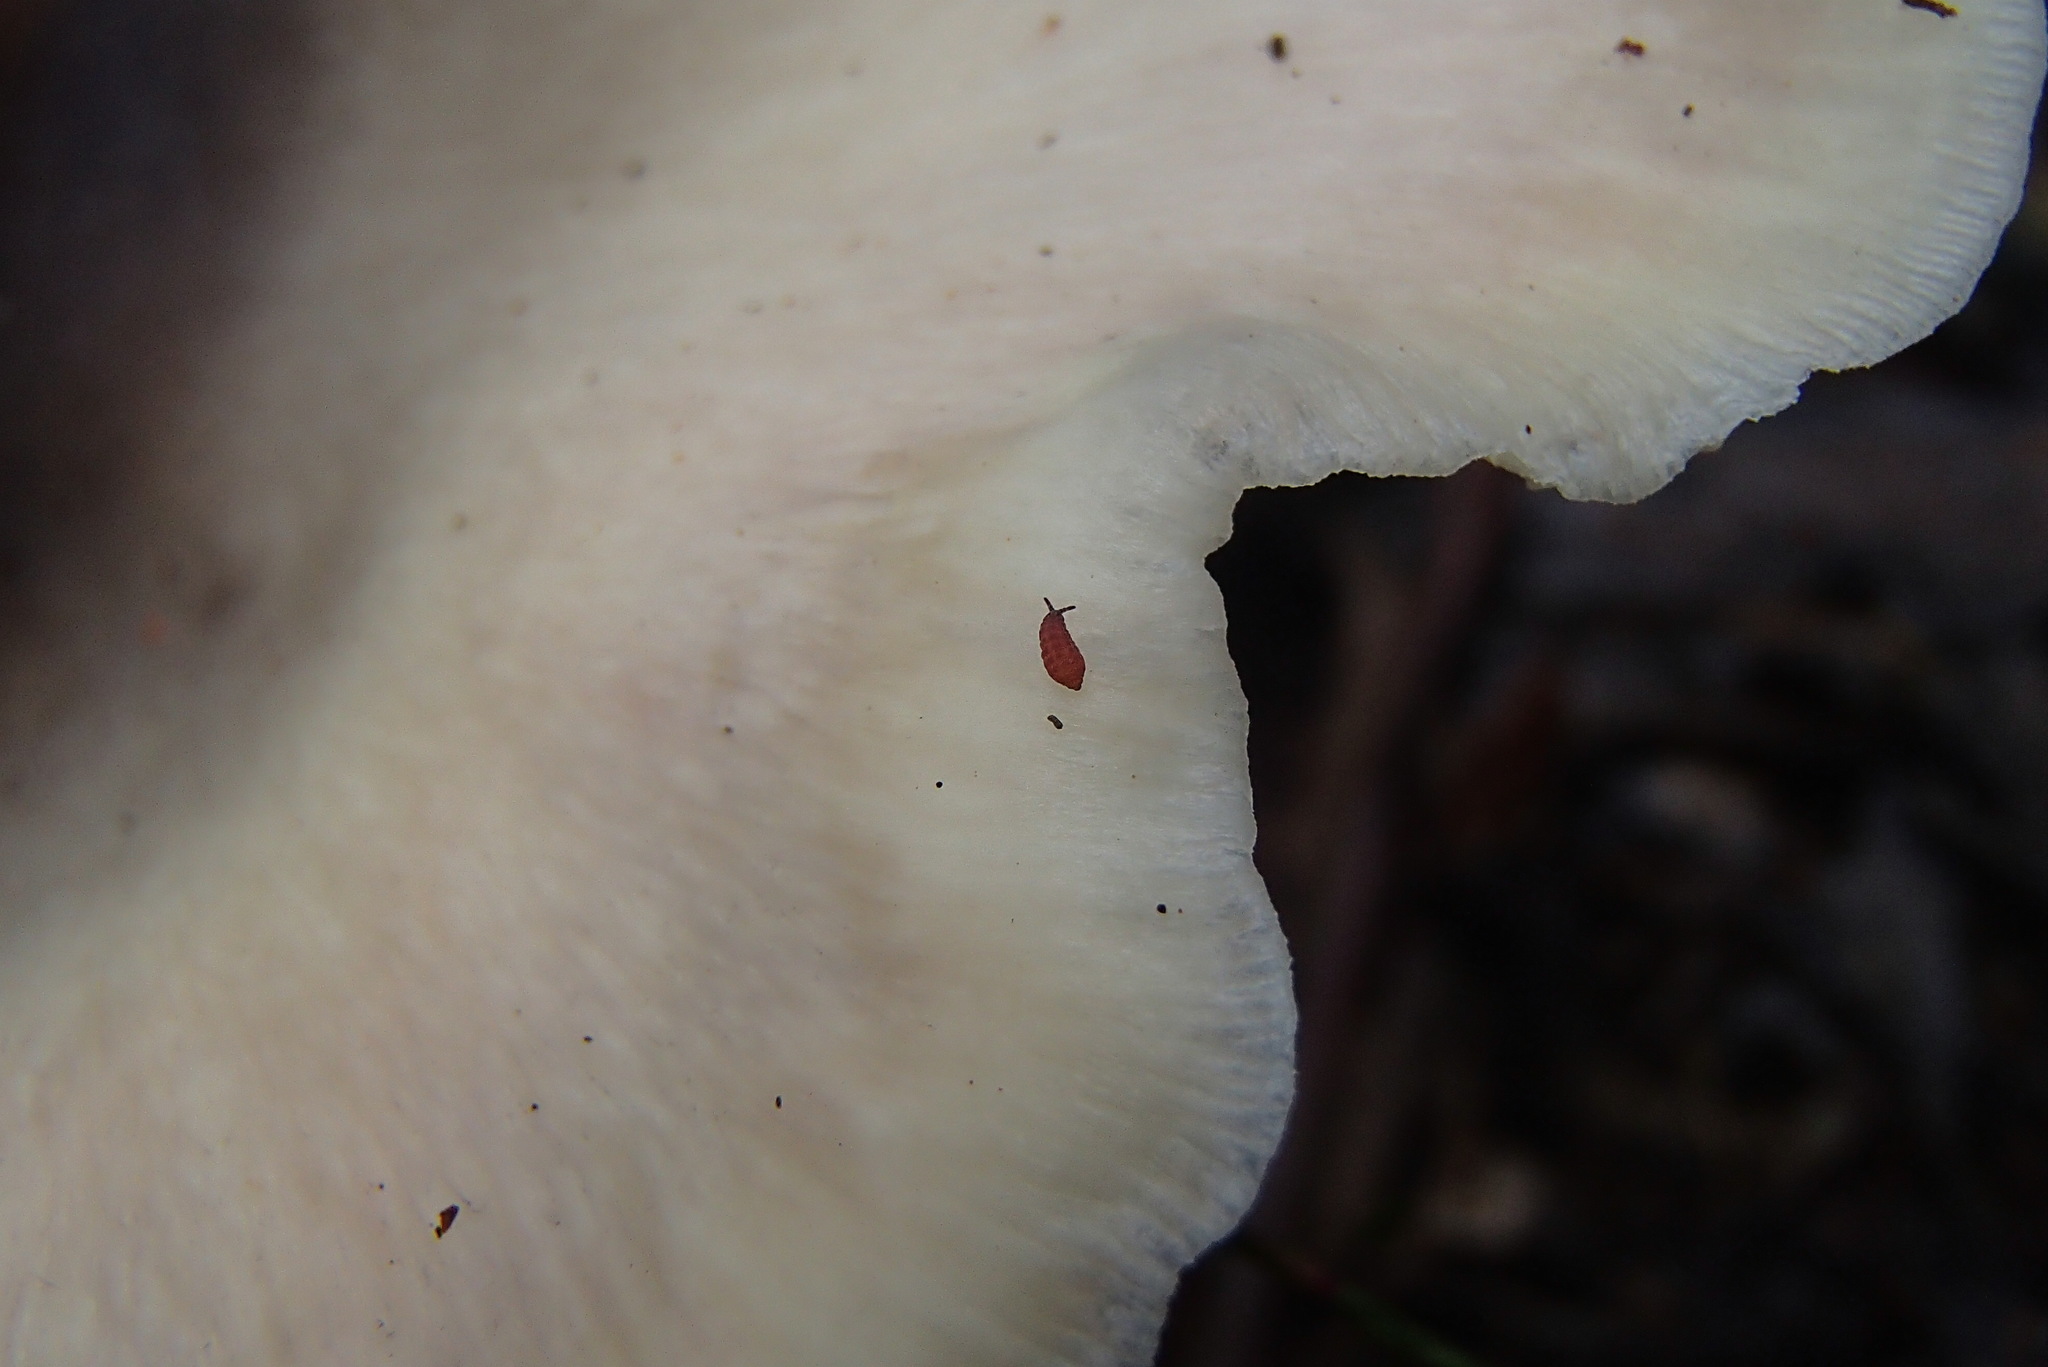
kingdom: Fungi
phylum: Basidiomycota
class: Agaricomycetes
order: Agaricales
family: Omphalotaceae
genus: Omphalotus
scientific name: Omphalotus nidiformis
